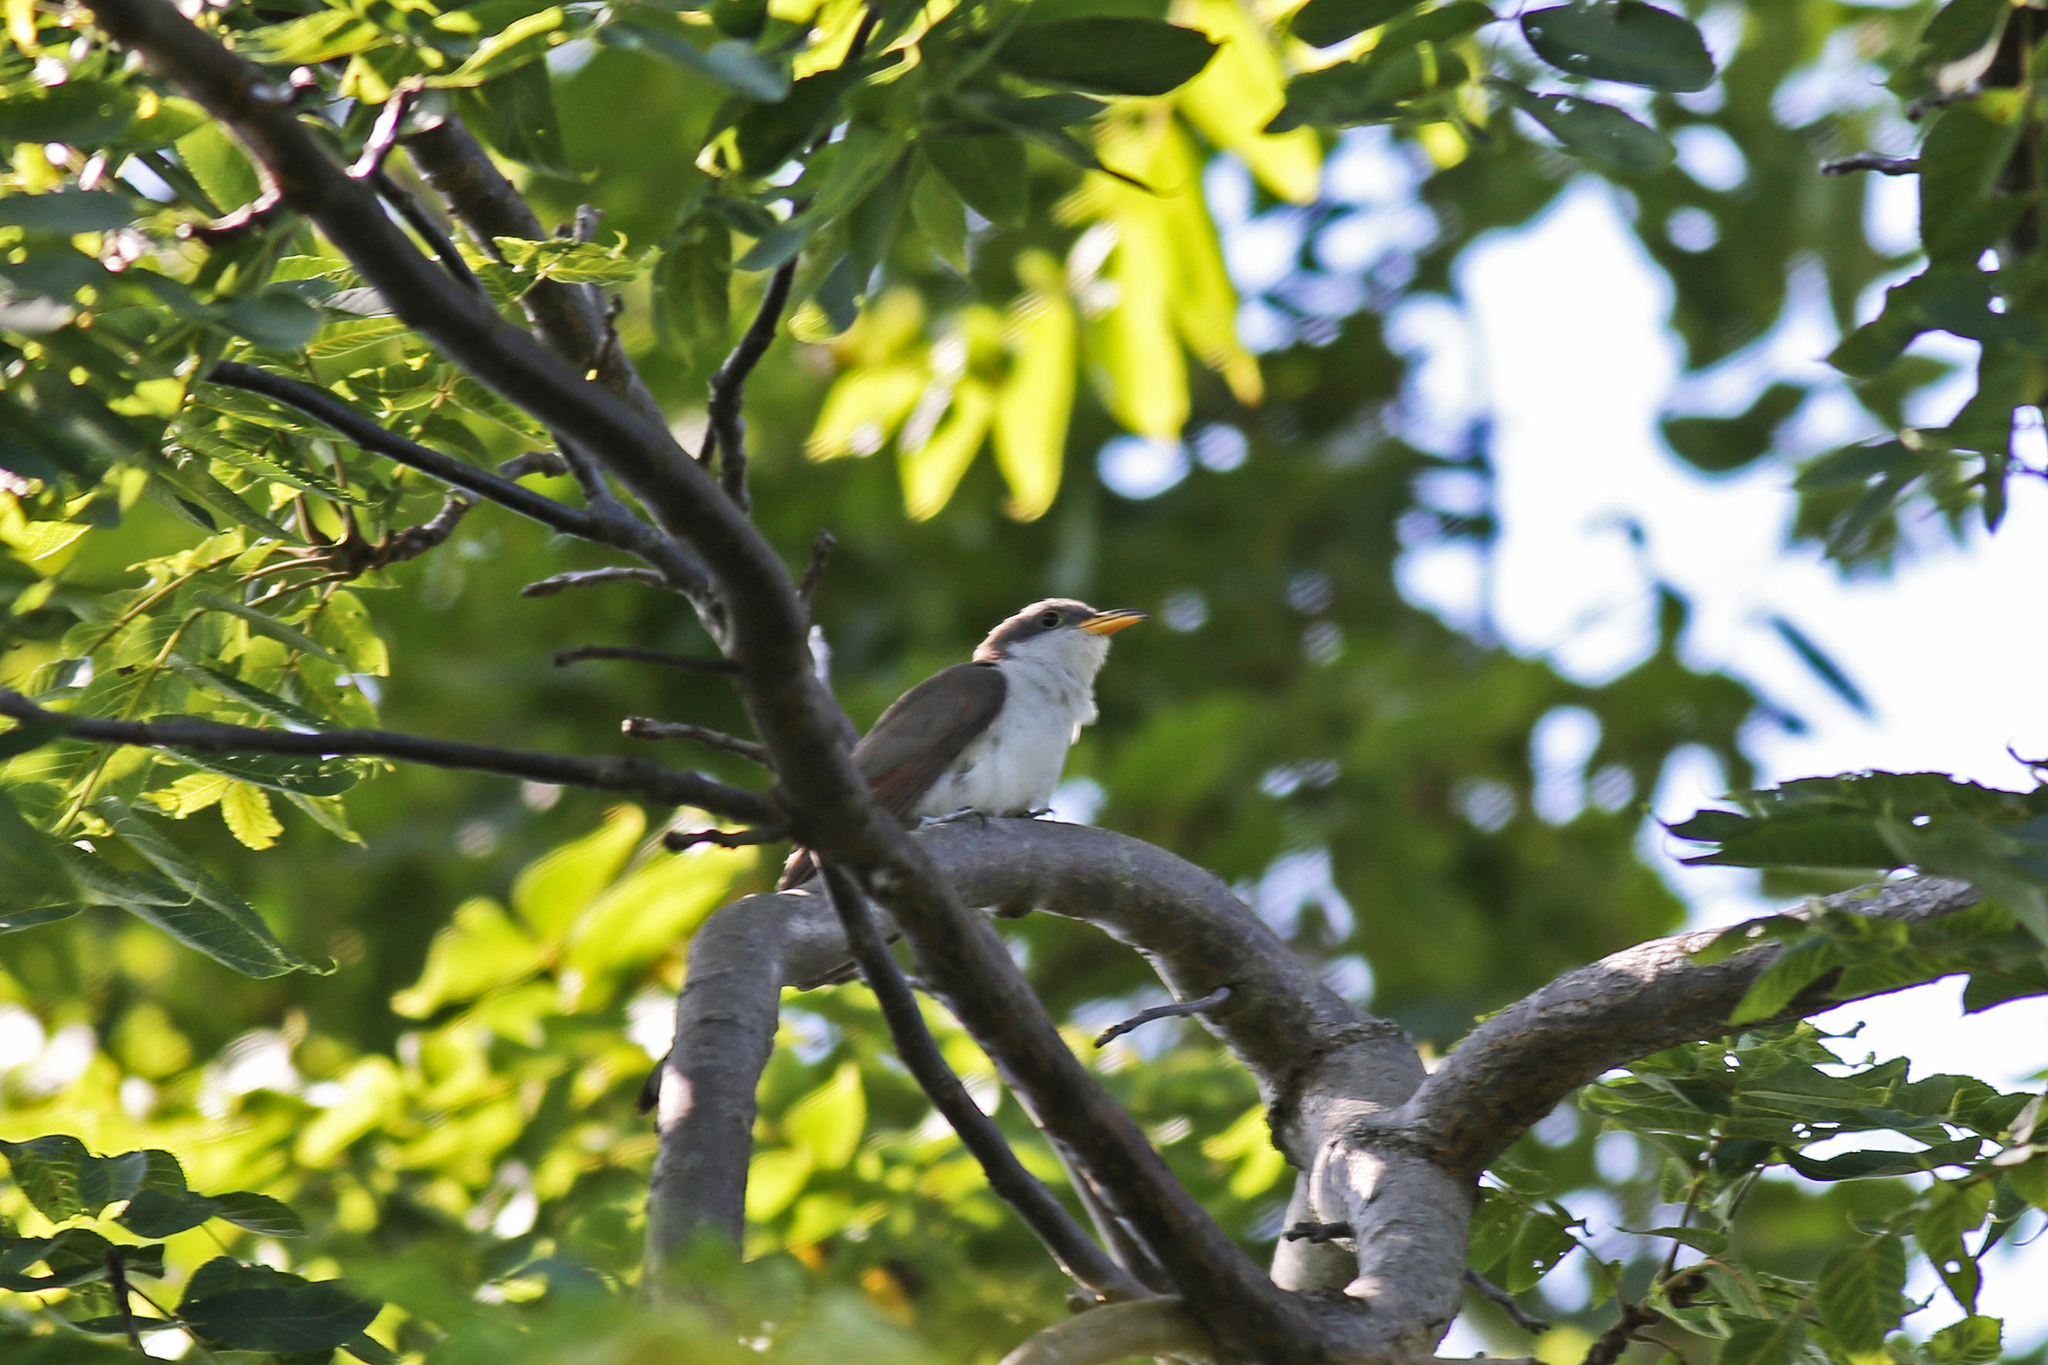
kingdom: Animalia
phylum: Chordata
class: Aves
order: Cuculiformes
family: Cuculidae
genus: Coccyzus
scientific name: Coccyzus americanus
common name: Yellow-billed cuckoo
